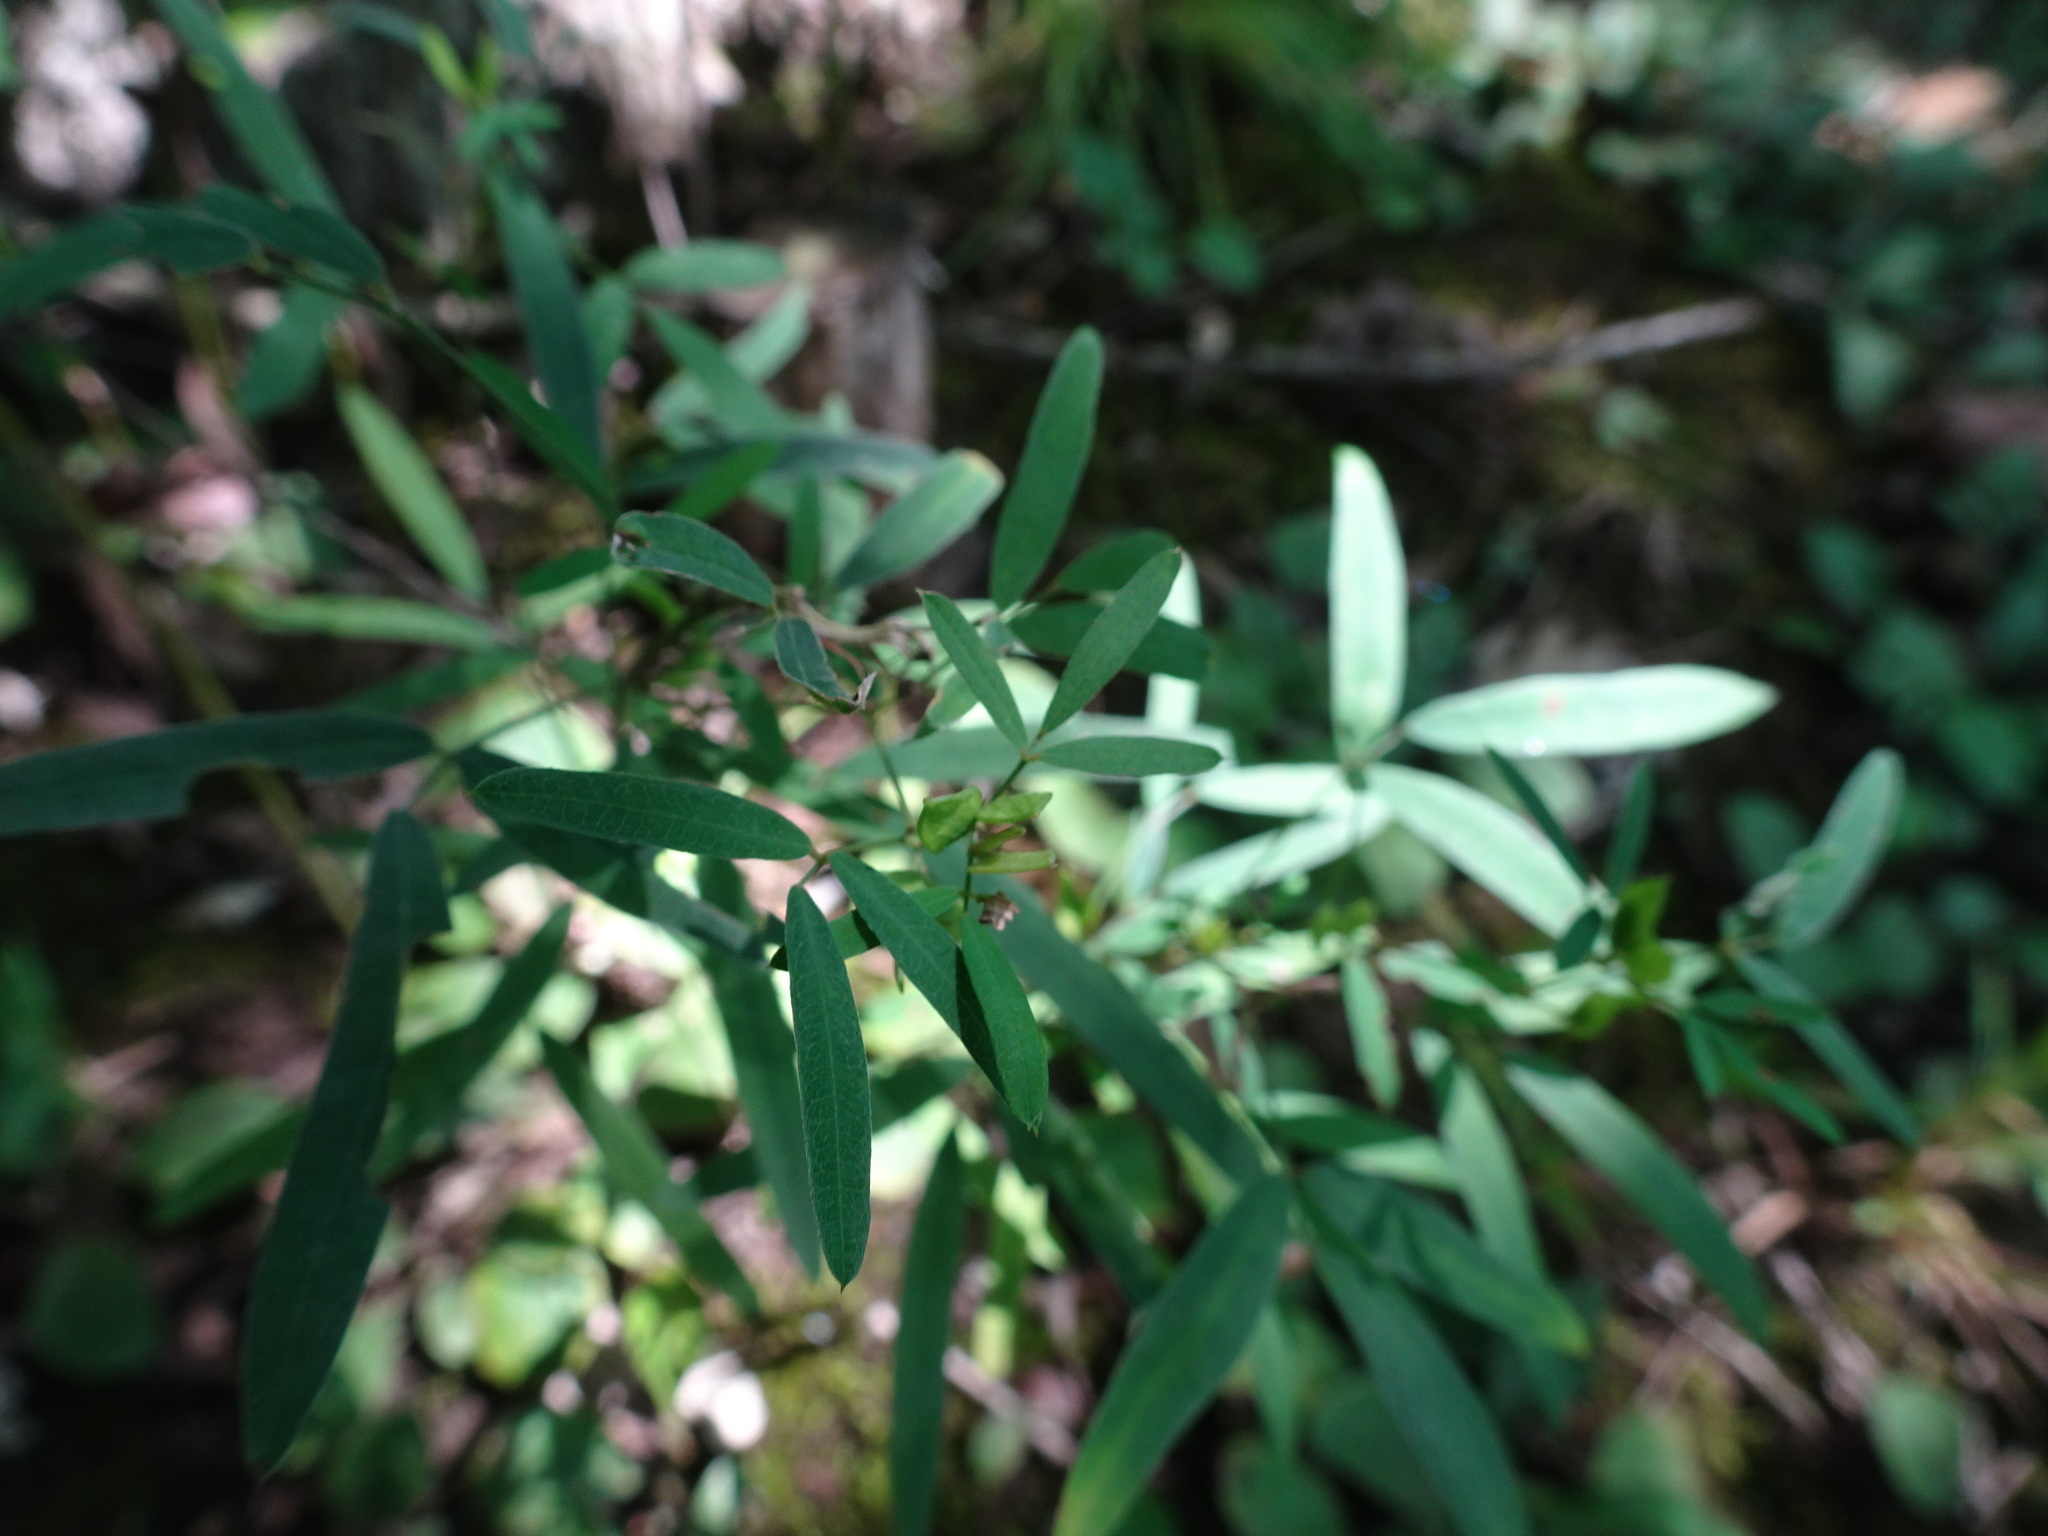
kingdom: Plantae
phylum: Tracheophyta
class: Magnoliopsida
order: Fabales
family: Fabaceae
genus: Lespedeza
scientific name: Lespedeza virginica
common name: Slender bush-clover
